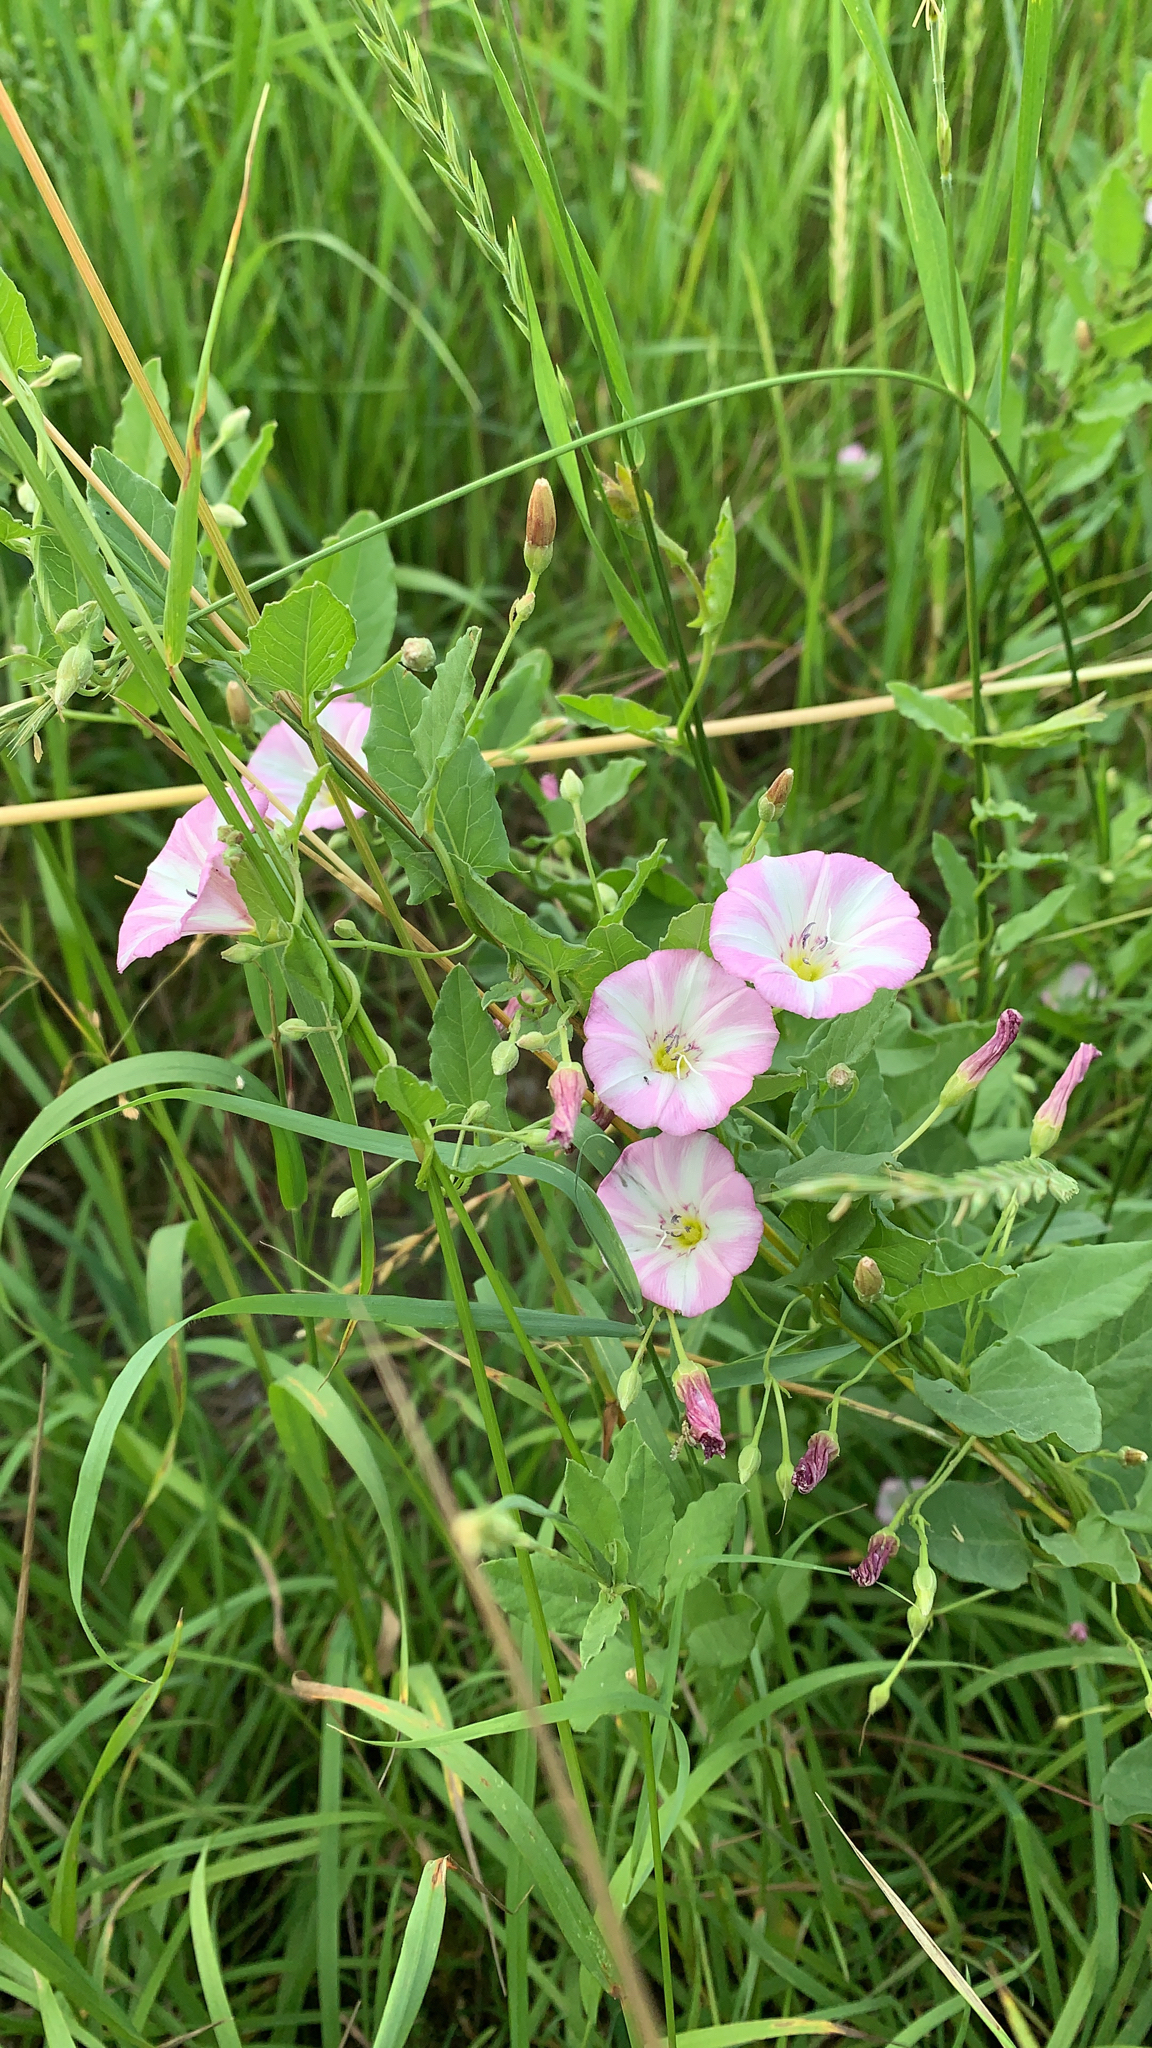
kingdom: Plantae
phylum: Tracheophyta
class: Magnoliopsida
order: Solanales
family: Convolvulaceae
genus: Convolvulus
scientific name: Convolvulus arvensis
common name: Field bindweed
